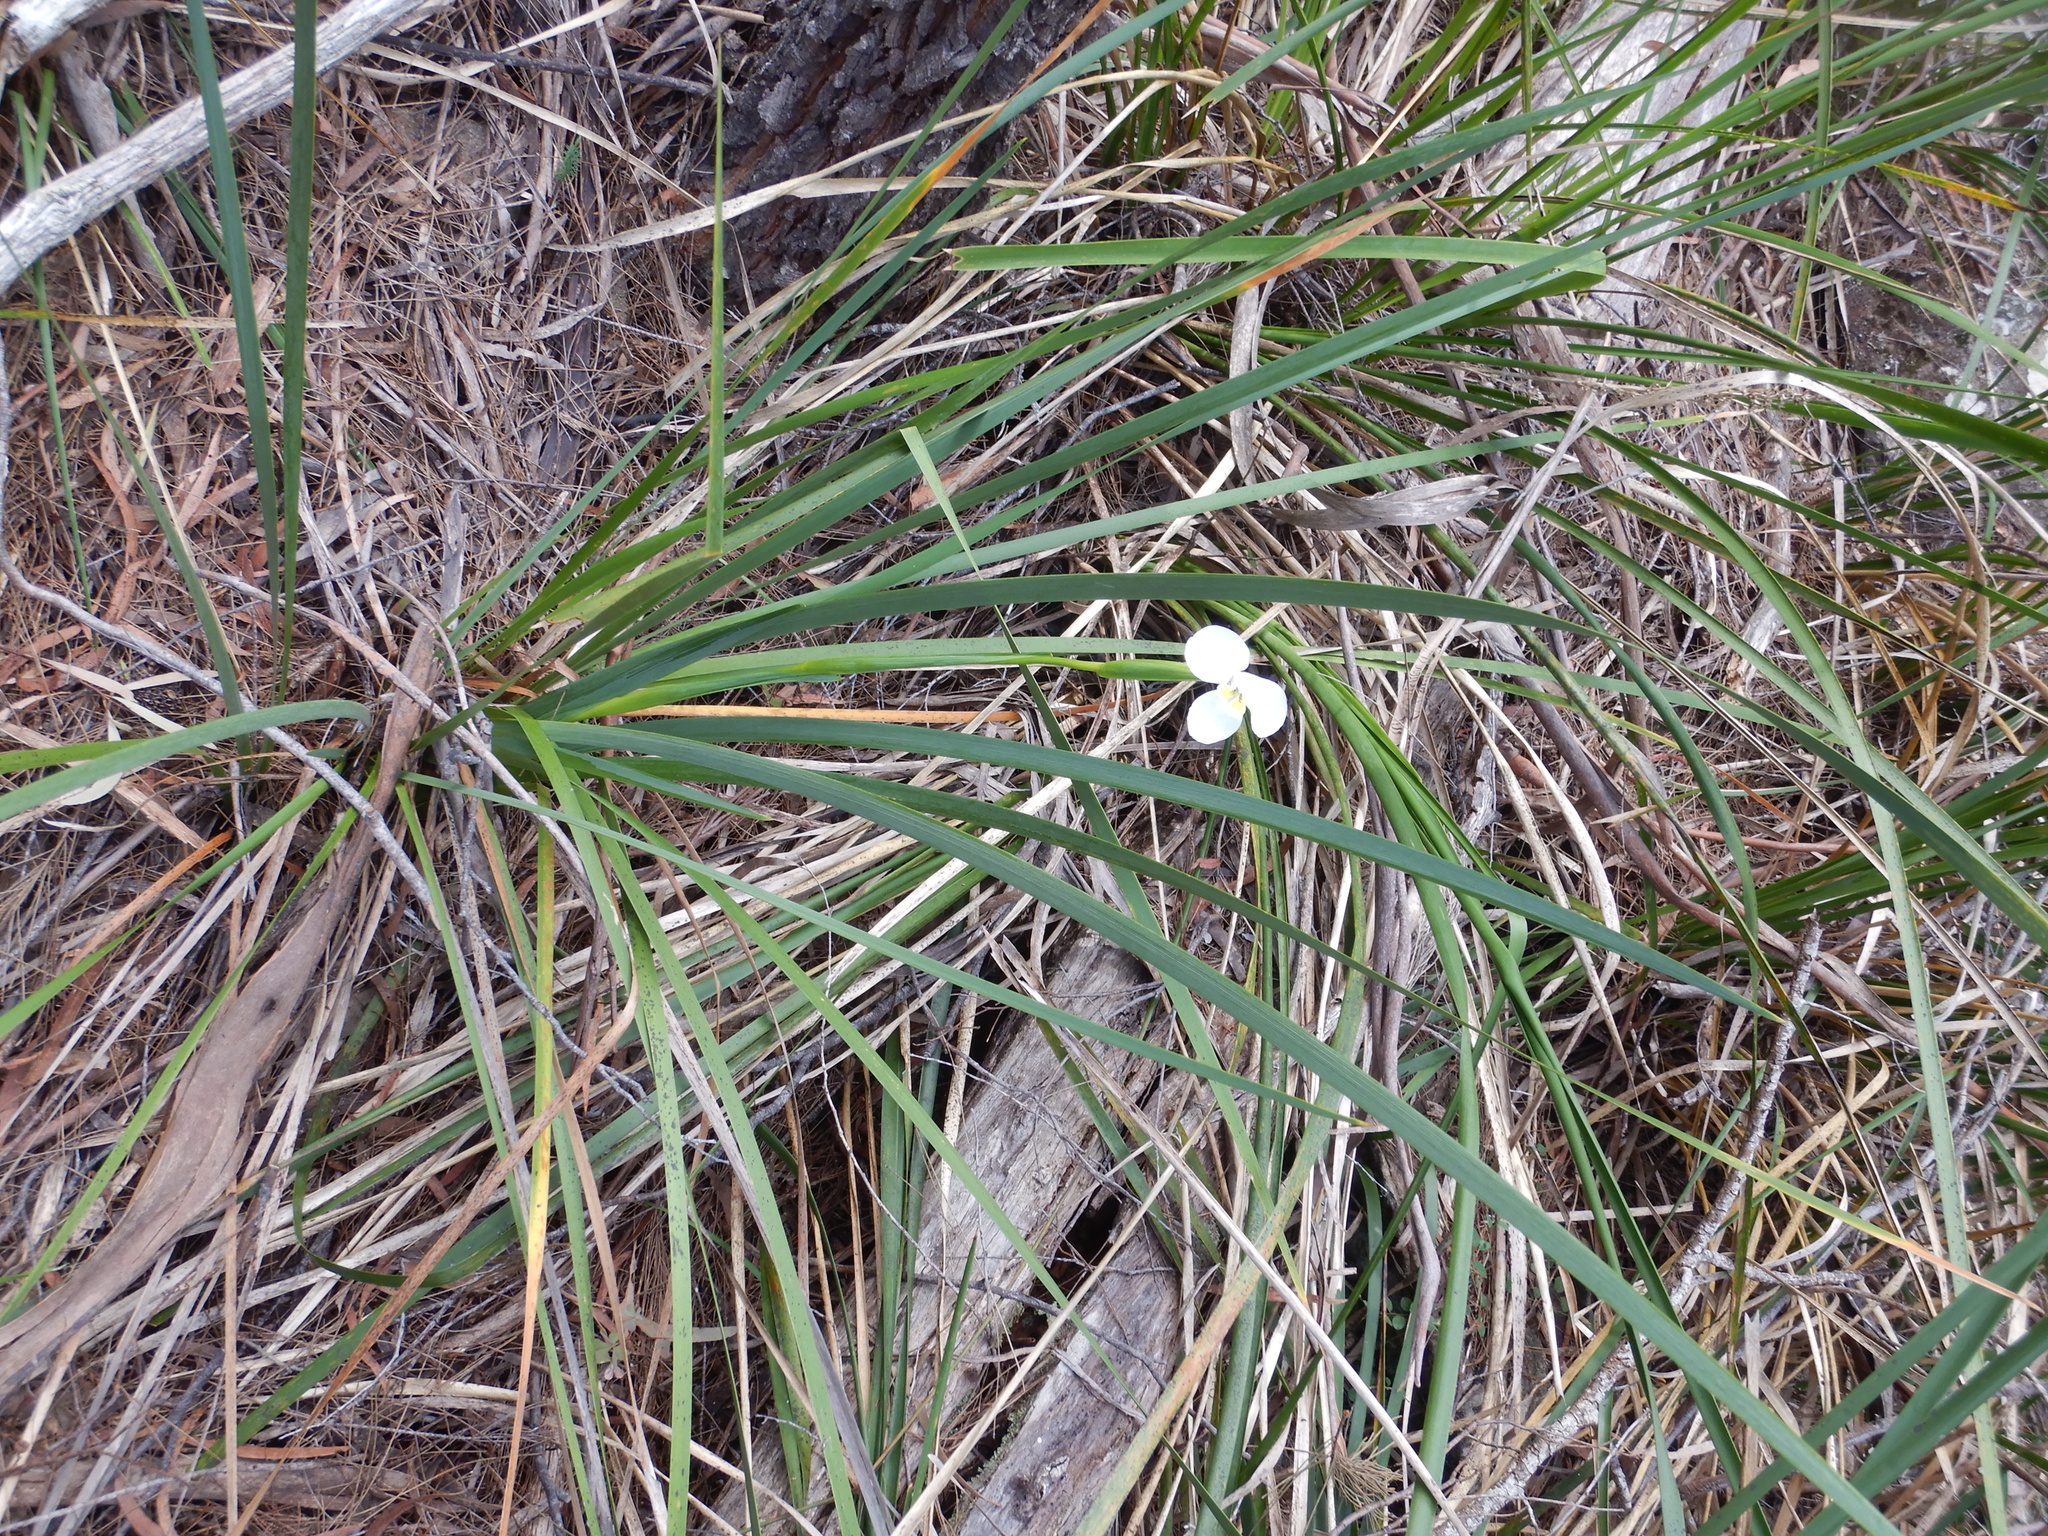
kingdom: Plantae
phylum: Tracheophyta
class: Liliopsida
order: Asparagales
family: Iridaceae
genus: Diplarrena
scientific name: Diplarrena moraea
